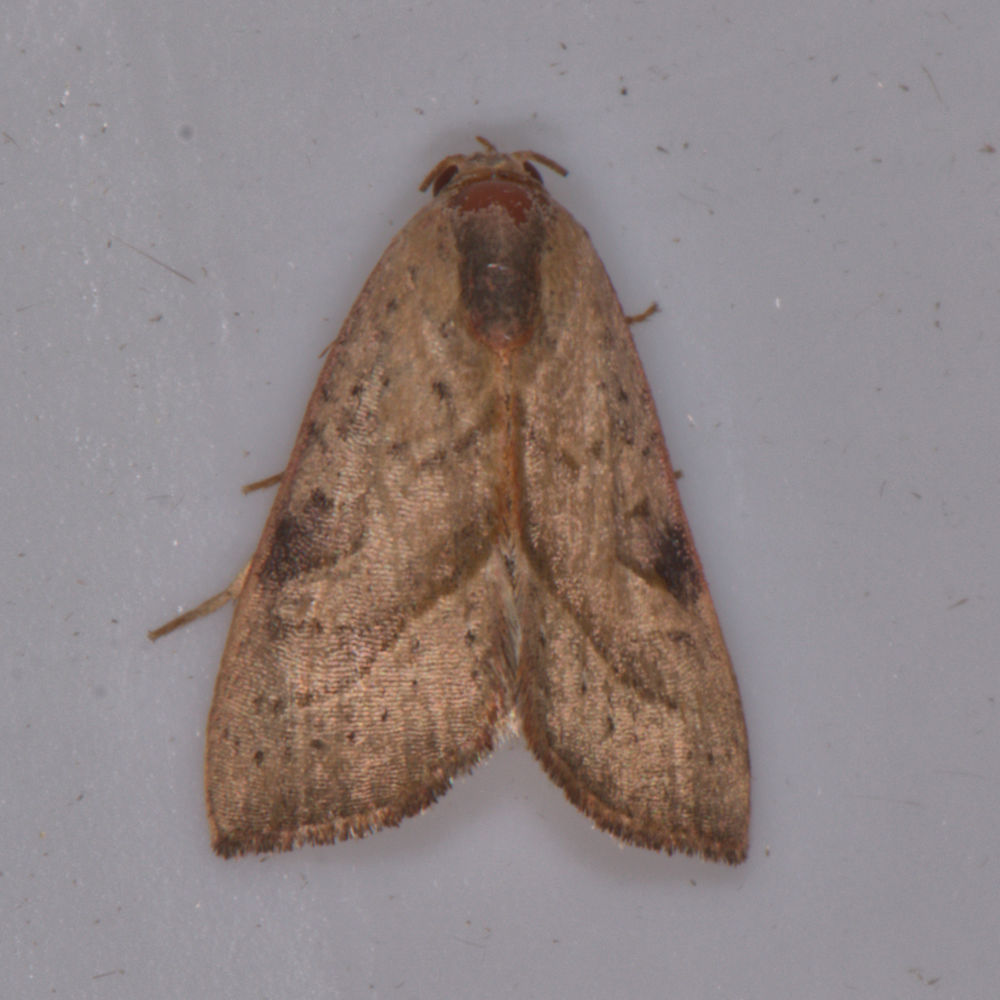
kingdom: Animalia
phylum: Arthropoda
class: Insecta
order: Lepidoptera
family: Noctuidae
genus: Galgula
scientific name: Galgula partita
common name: Wedgeling
